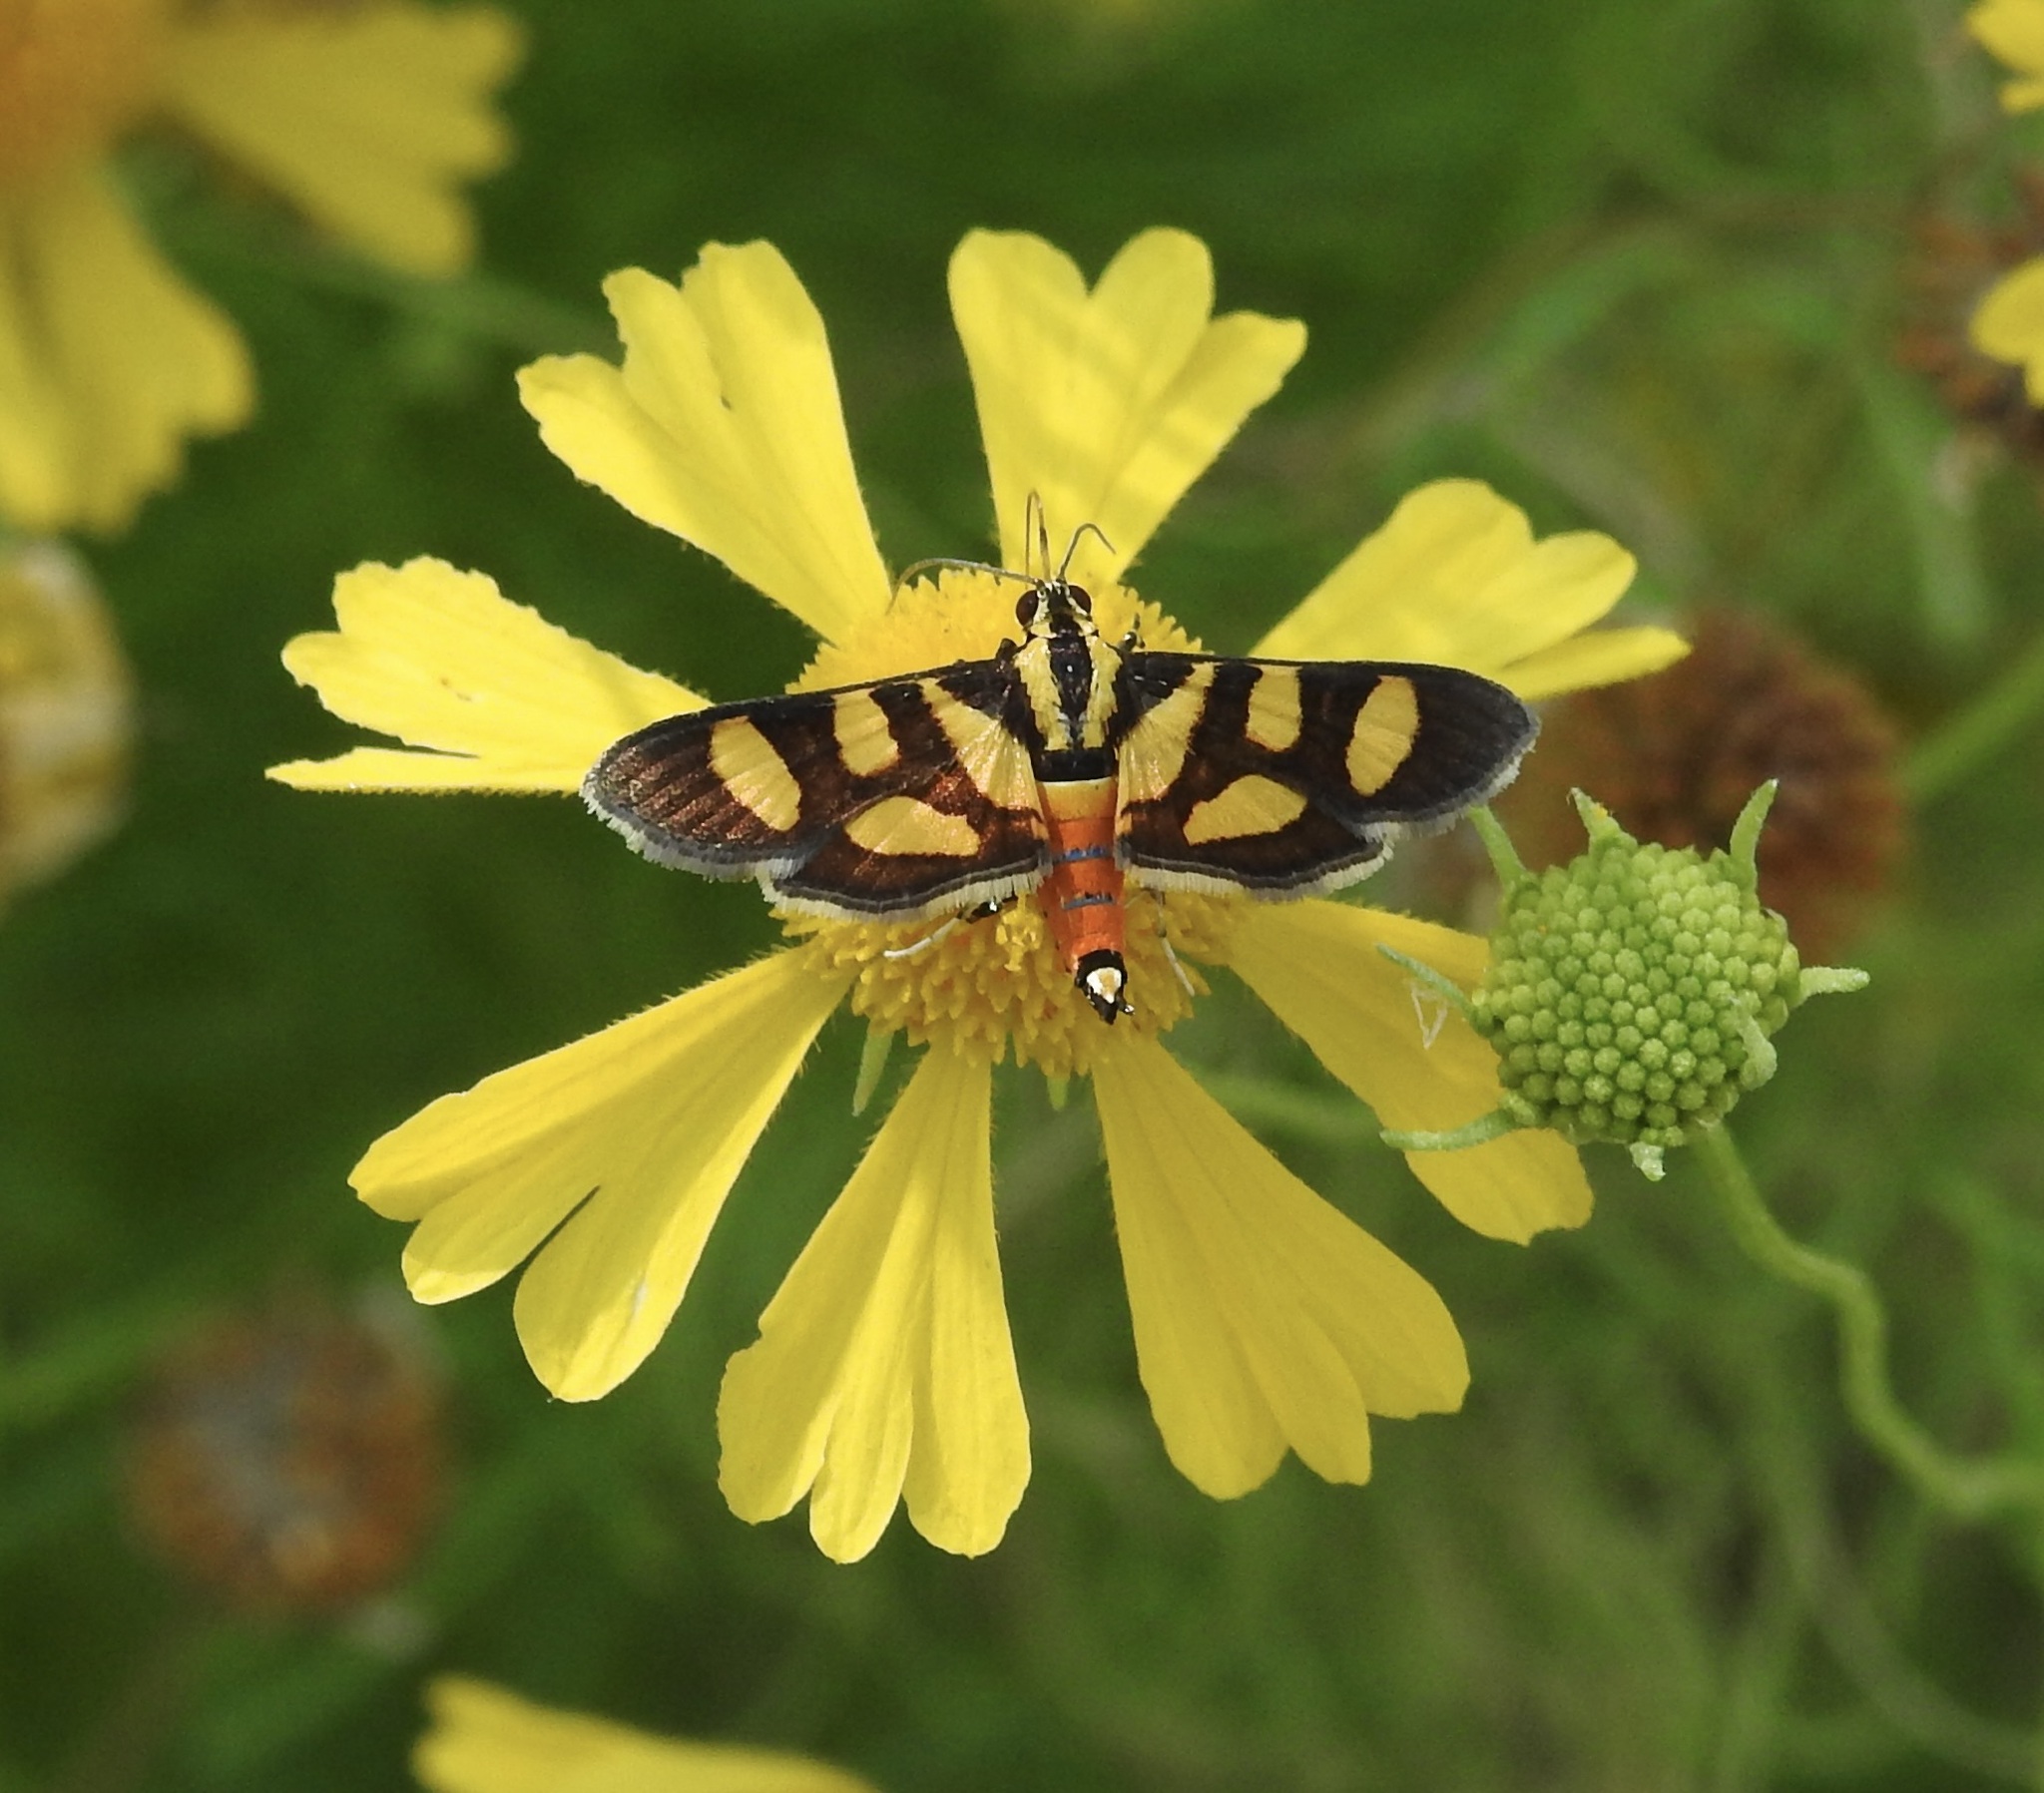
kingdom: Animalia
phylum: Arthropoda
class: Insecta
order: Lepidoptera
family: Crambidae
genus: Syngamia
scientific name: Syngamia florella
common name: Orange-spotted flower moth
